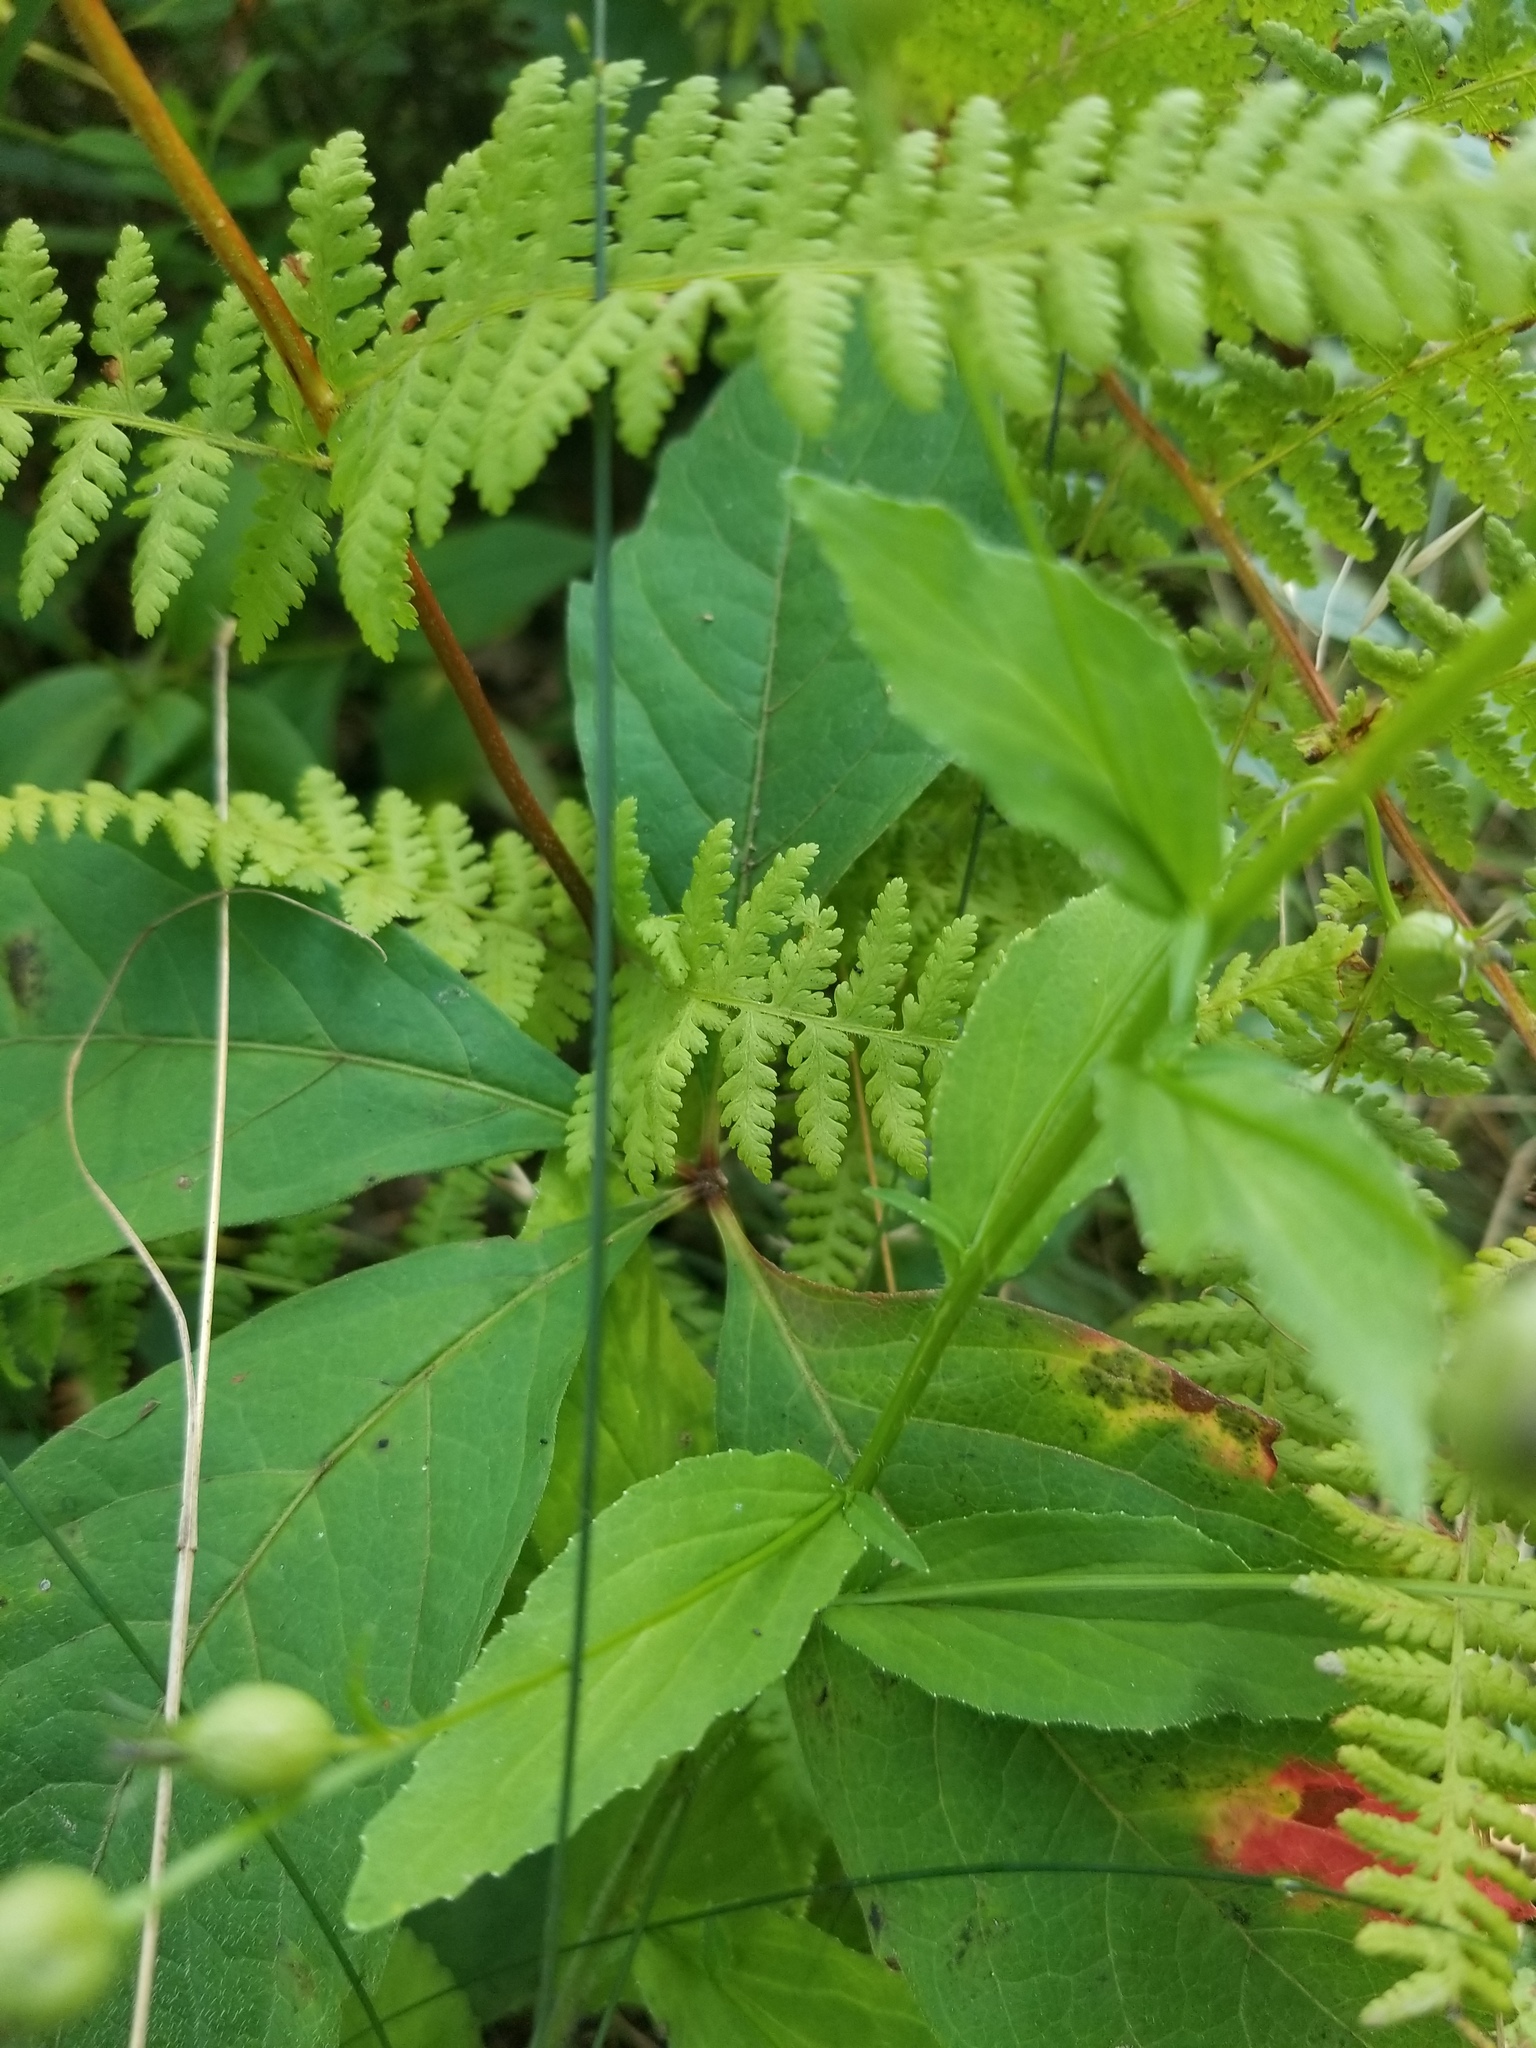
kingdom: Plantae
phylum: Tracheophyta
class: Magnoliopsida
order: Asterales
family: Campanulaceae
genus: Lobelia
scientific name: Lobelia inflata
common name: Indian tobacco
